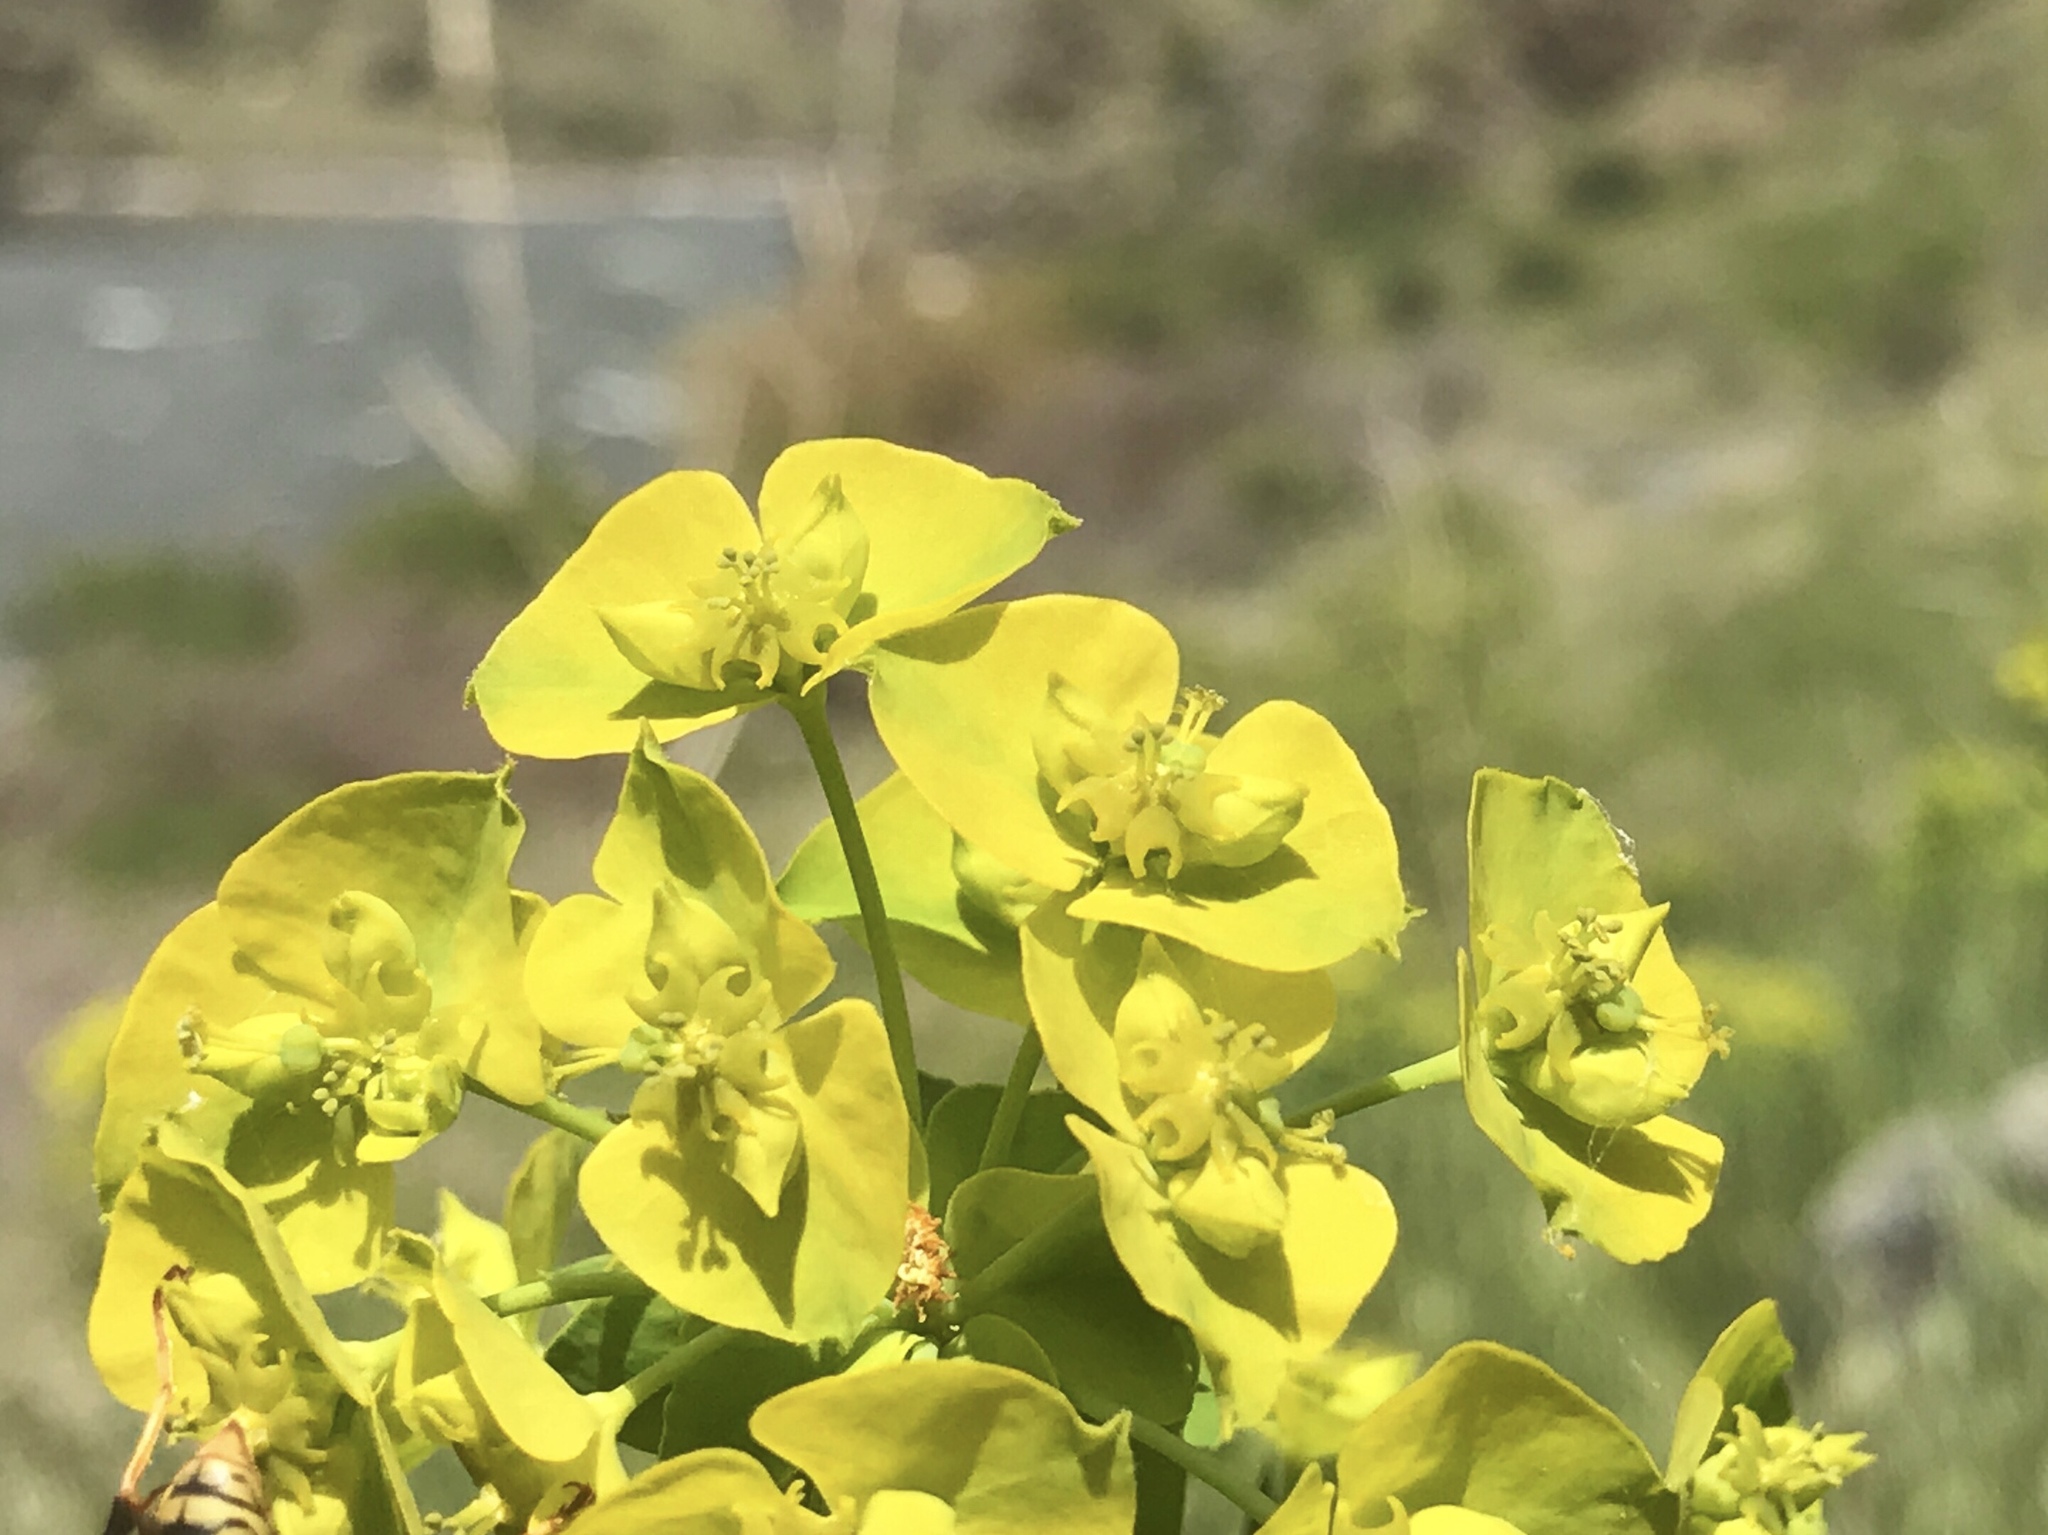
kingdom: Plantae
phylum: Tracheophyta
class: Magnoliopsida
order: Malpighiales
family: Euphorbiaceae
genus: Euphorbia
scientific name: Euphorbia virgata
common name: Leafy spurge
